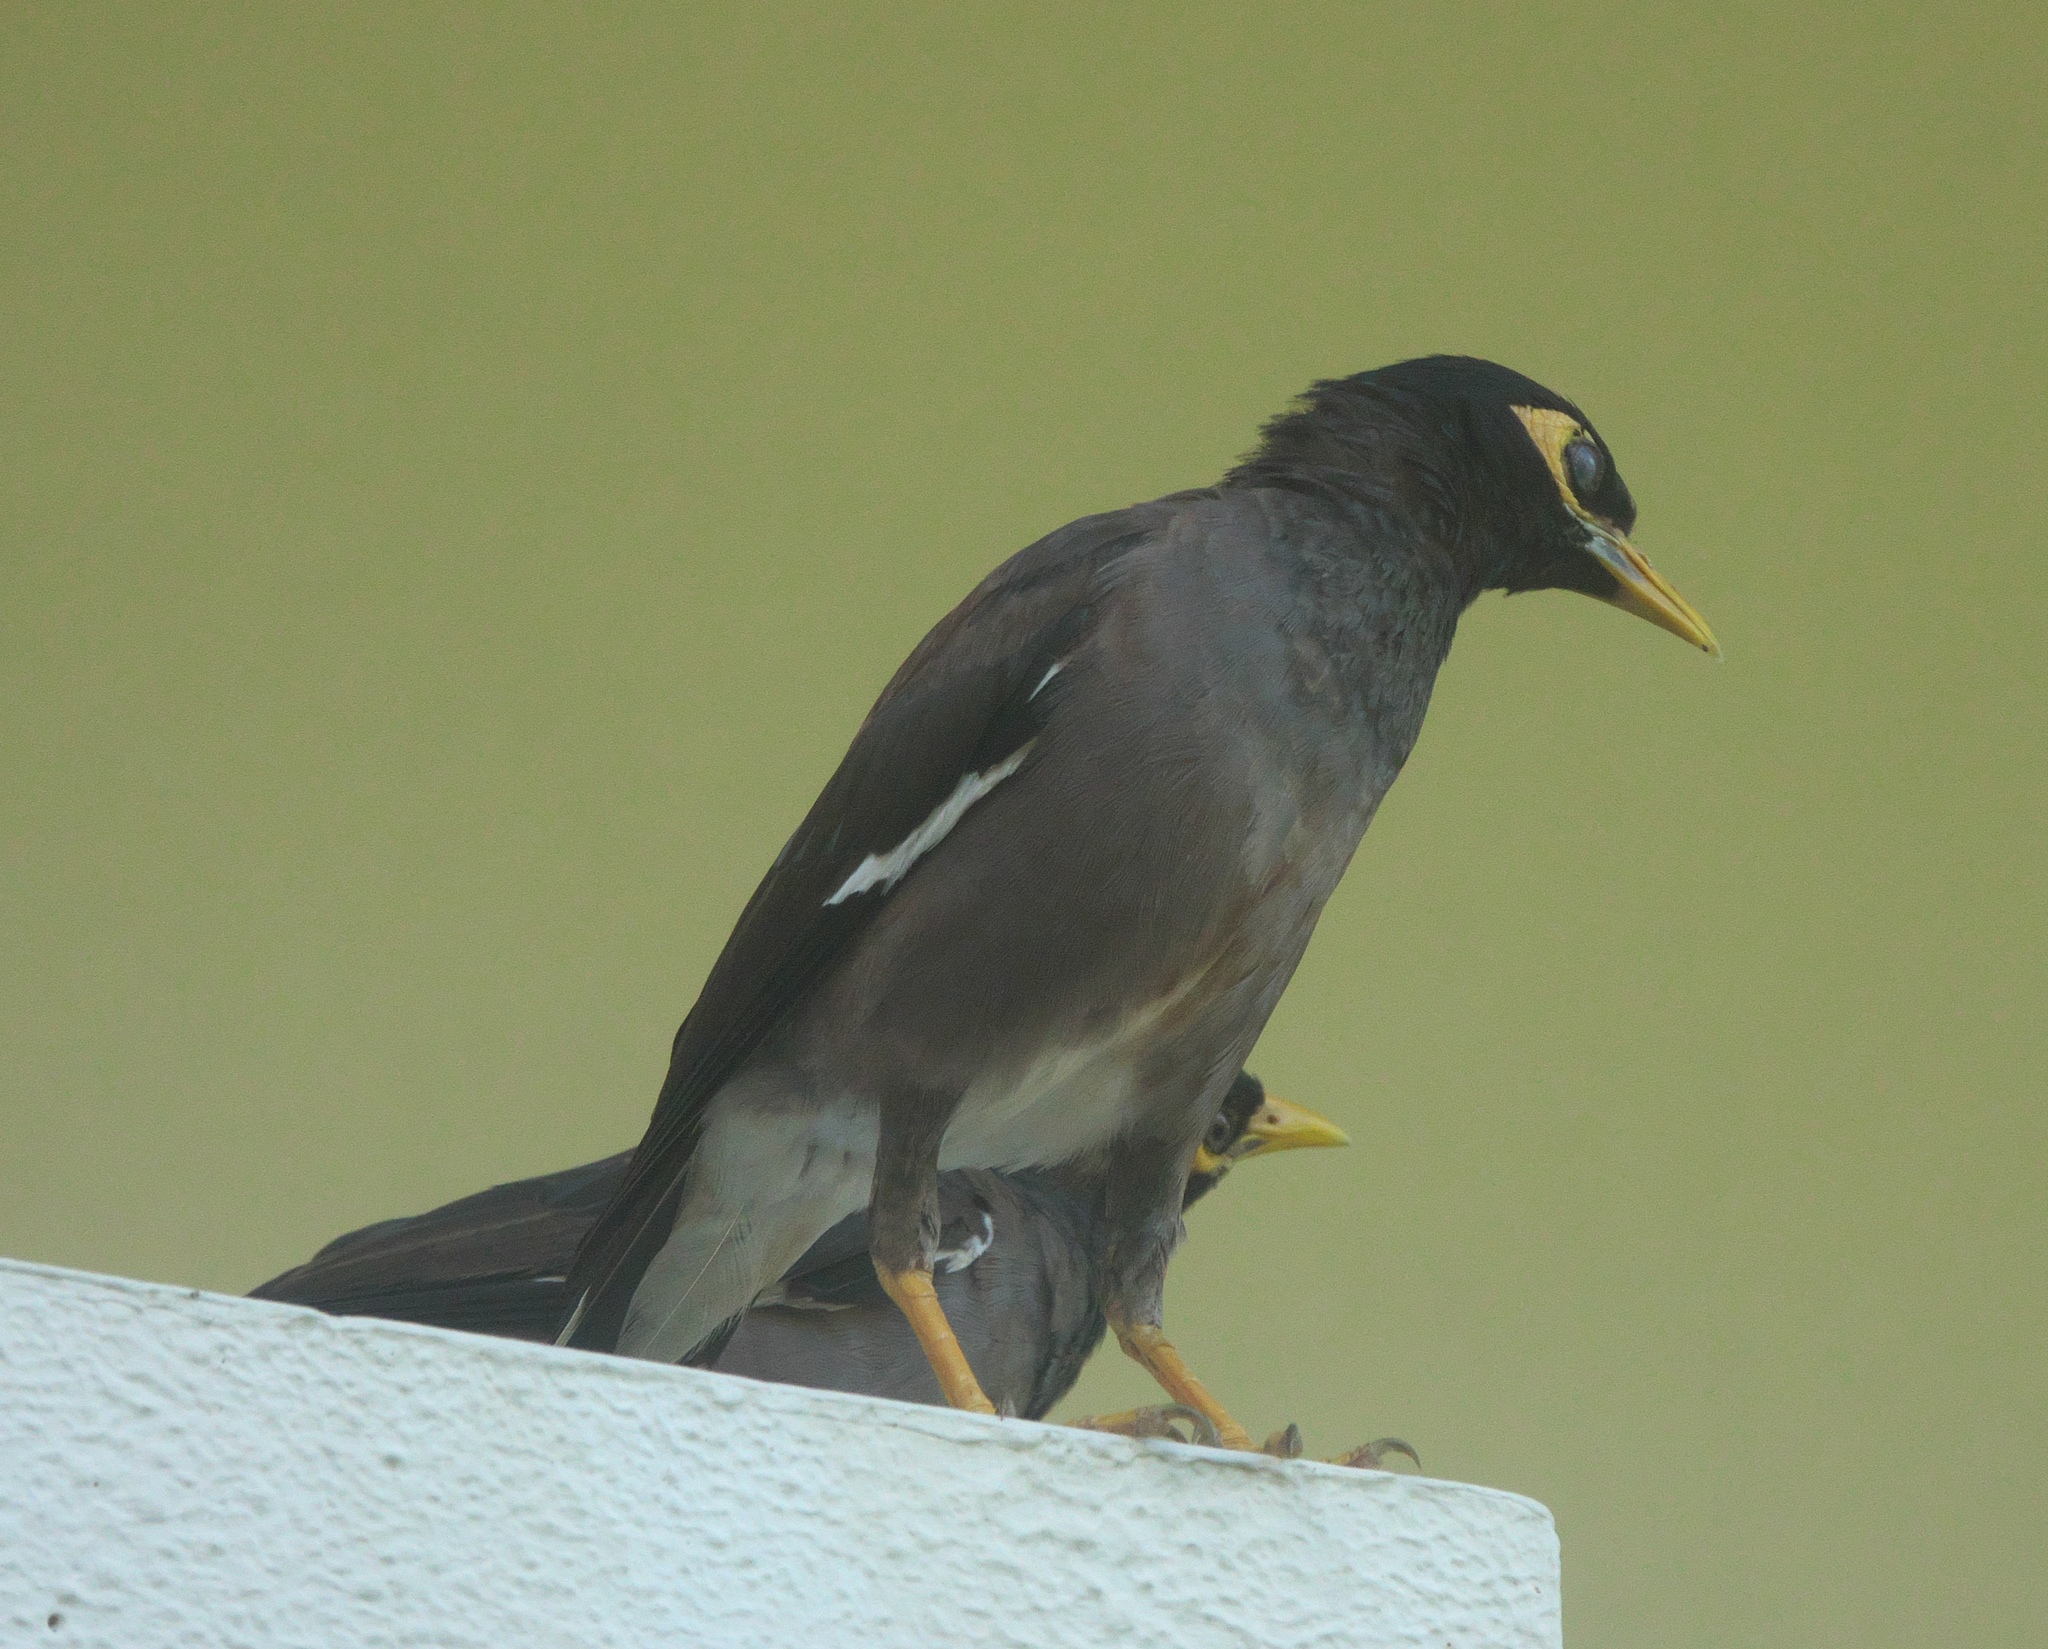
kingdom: Animalia
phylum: Chordata
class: Aves
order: Passeriformes
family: Sturnidae
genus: Acridotheres
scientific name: Acridotheres tristis
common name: Common myna
